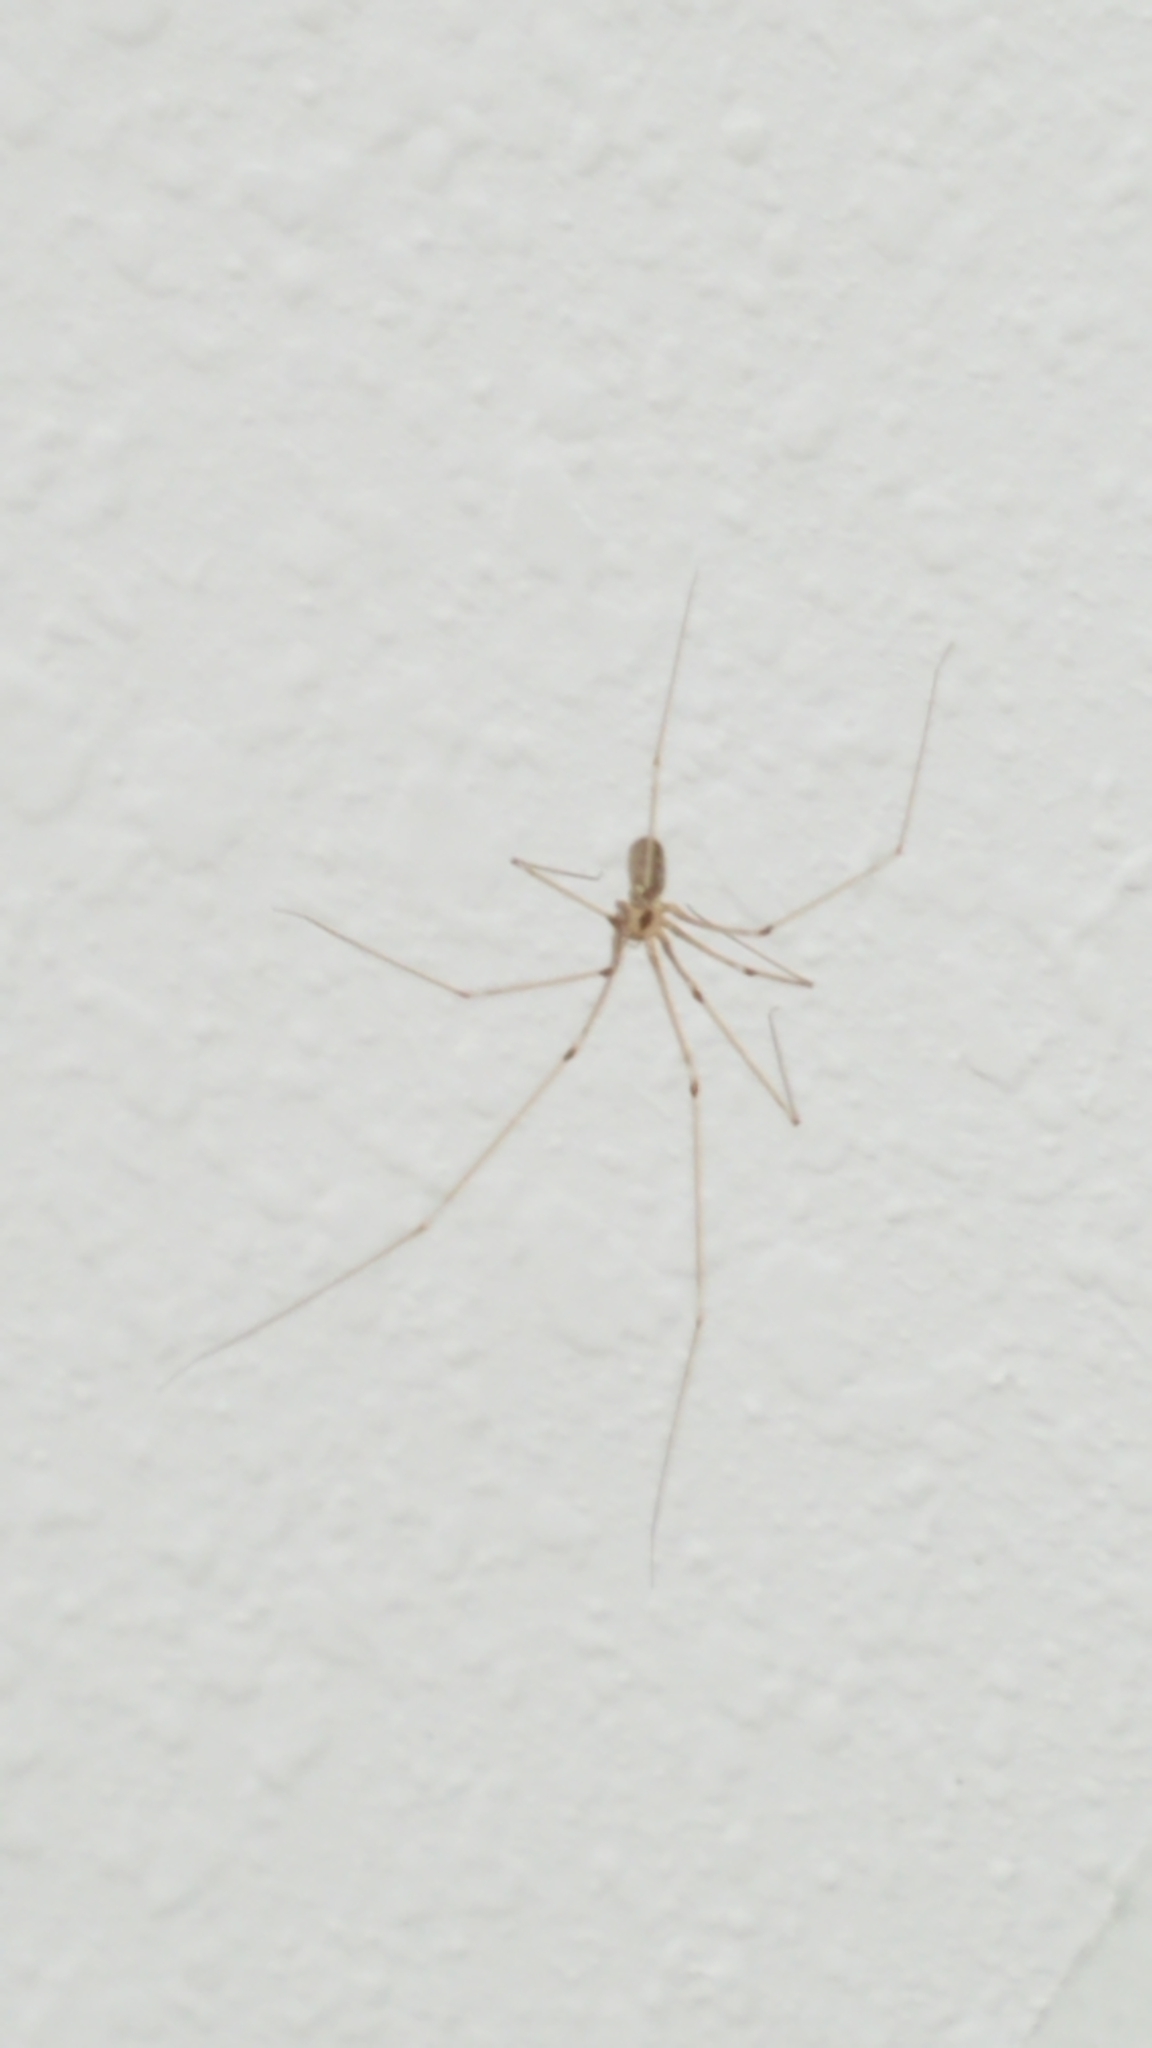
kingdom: Animalia
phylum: Arthropoda
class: Arachnida
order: Araneae
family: Pholcidae
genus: Pholcus
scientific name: Pholcus phalangioides
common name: Longbodied cellar spider
